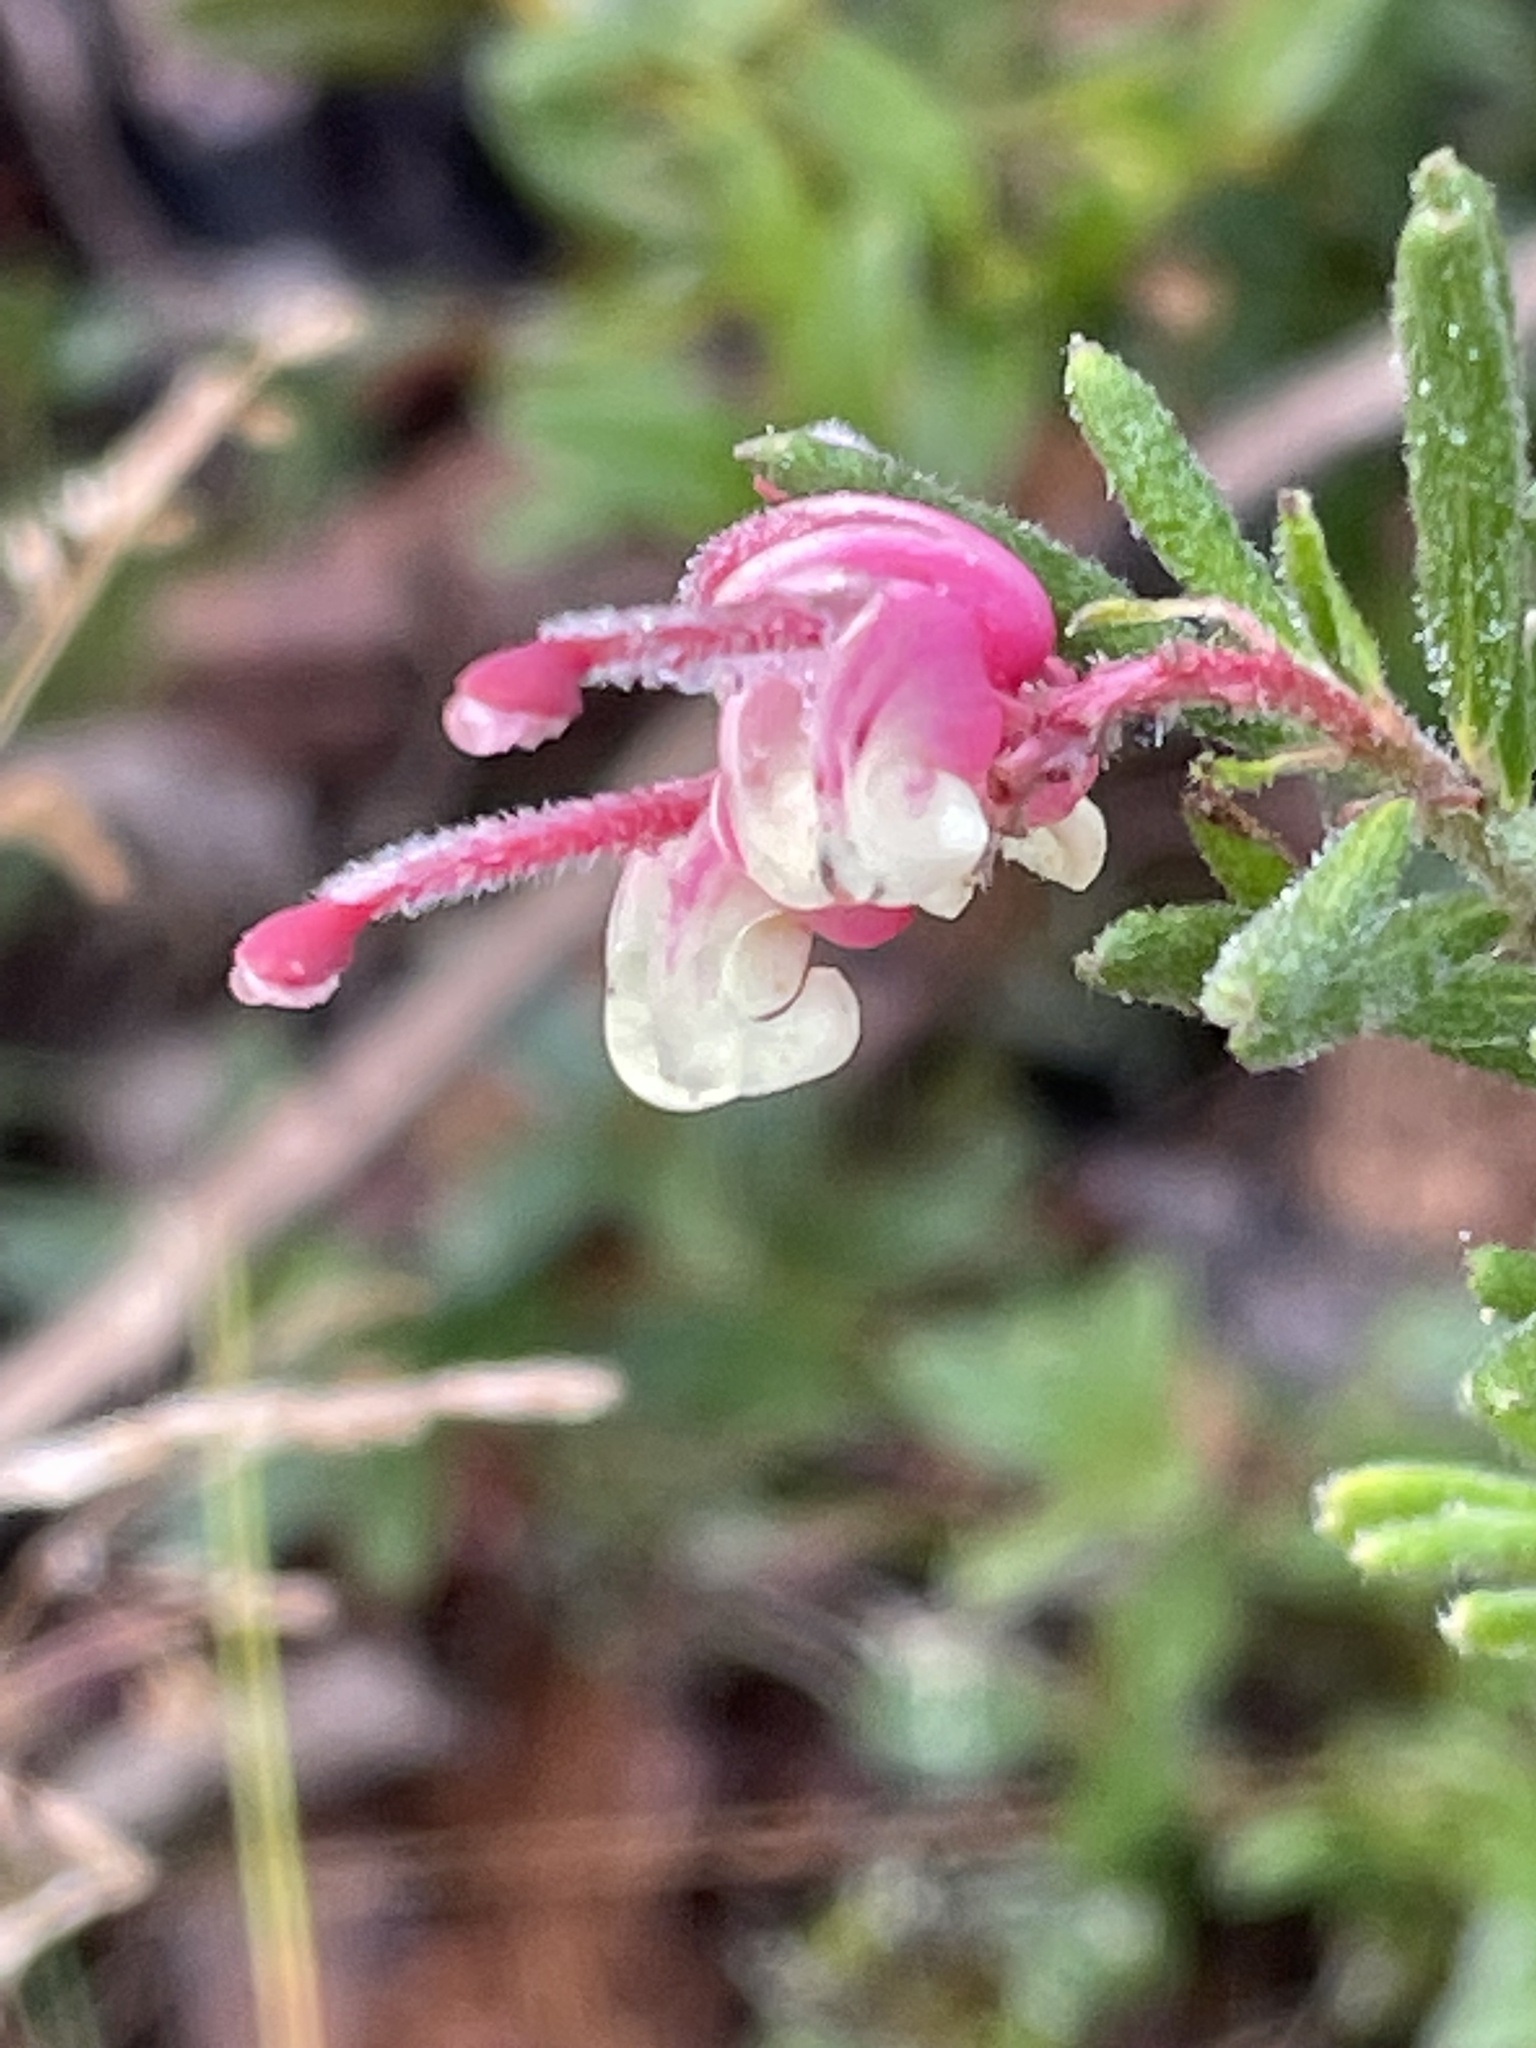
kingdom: Plantae
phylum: Tracheophyta
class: Magnoliopsida
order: Proteales
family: Proteaceae
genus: Grevillea
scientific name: Grevillea lanigera
